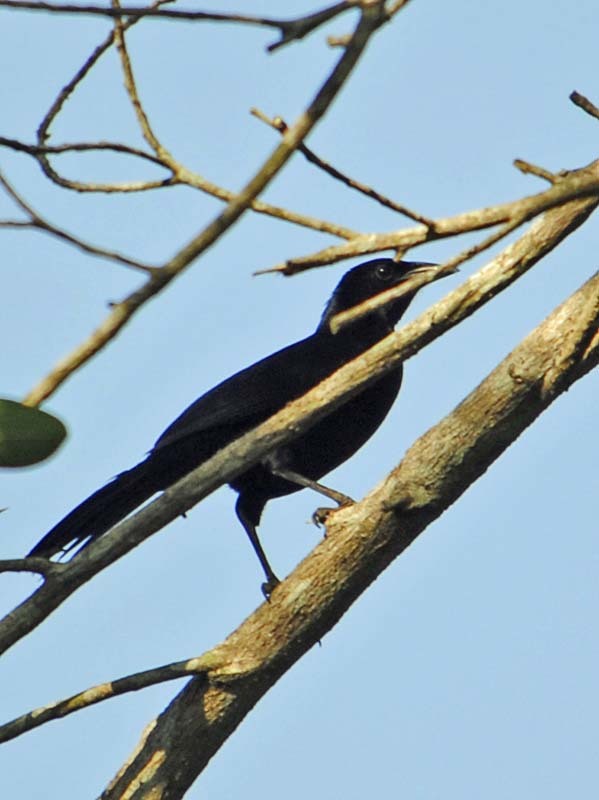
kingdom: Animalia
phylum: Chordata
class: Aves
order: Passeriformes
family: Icteridae
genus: Dives
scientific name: Dives dives
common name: Melodious blackbird
